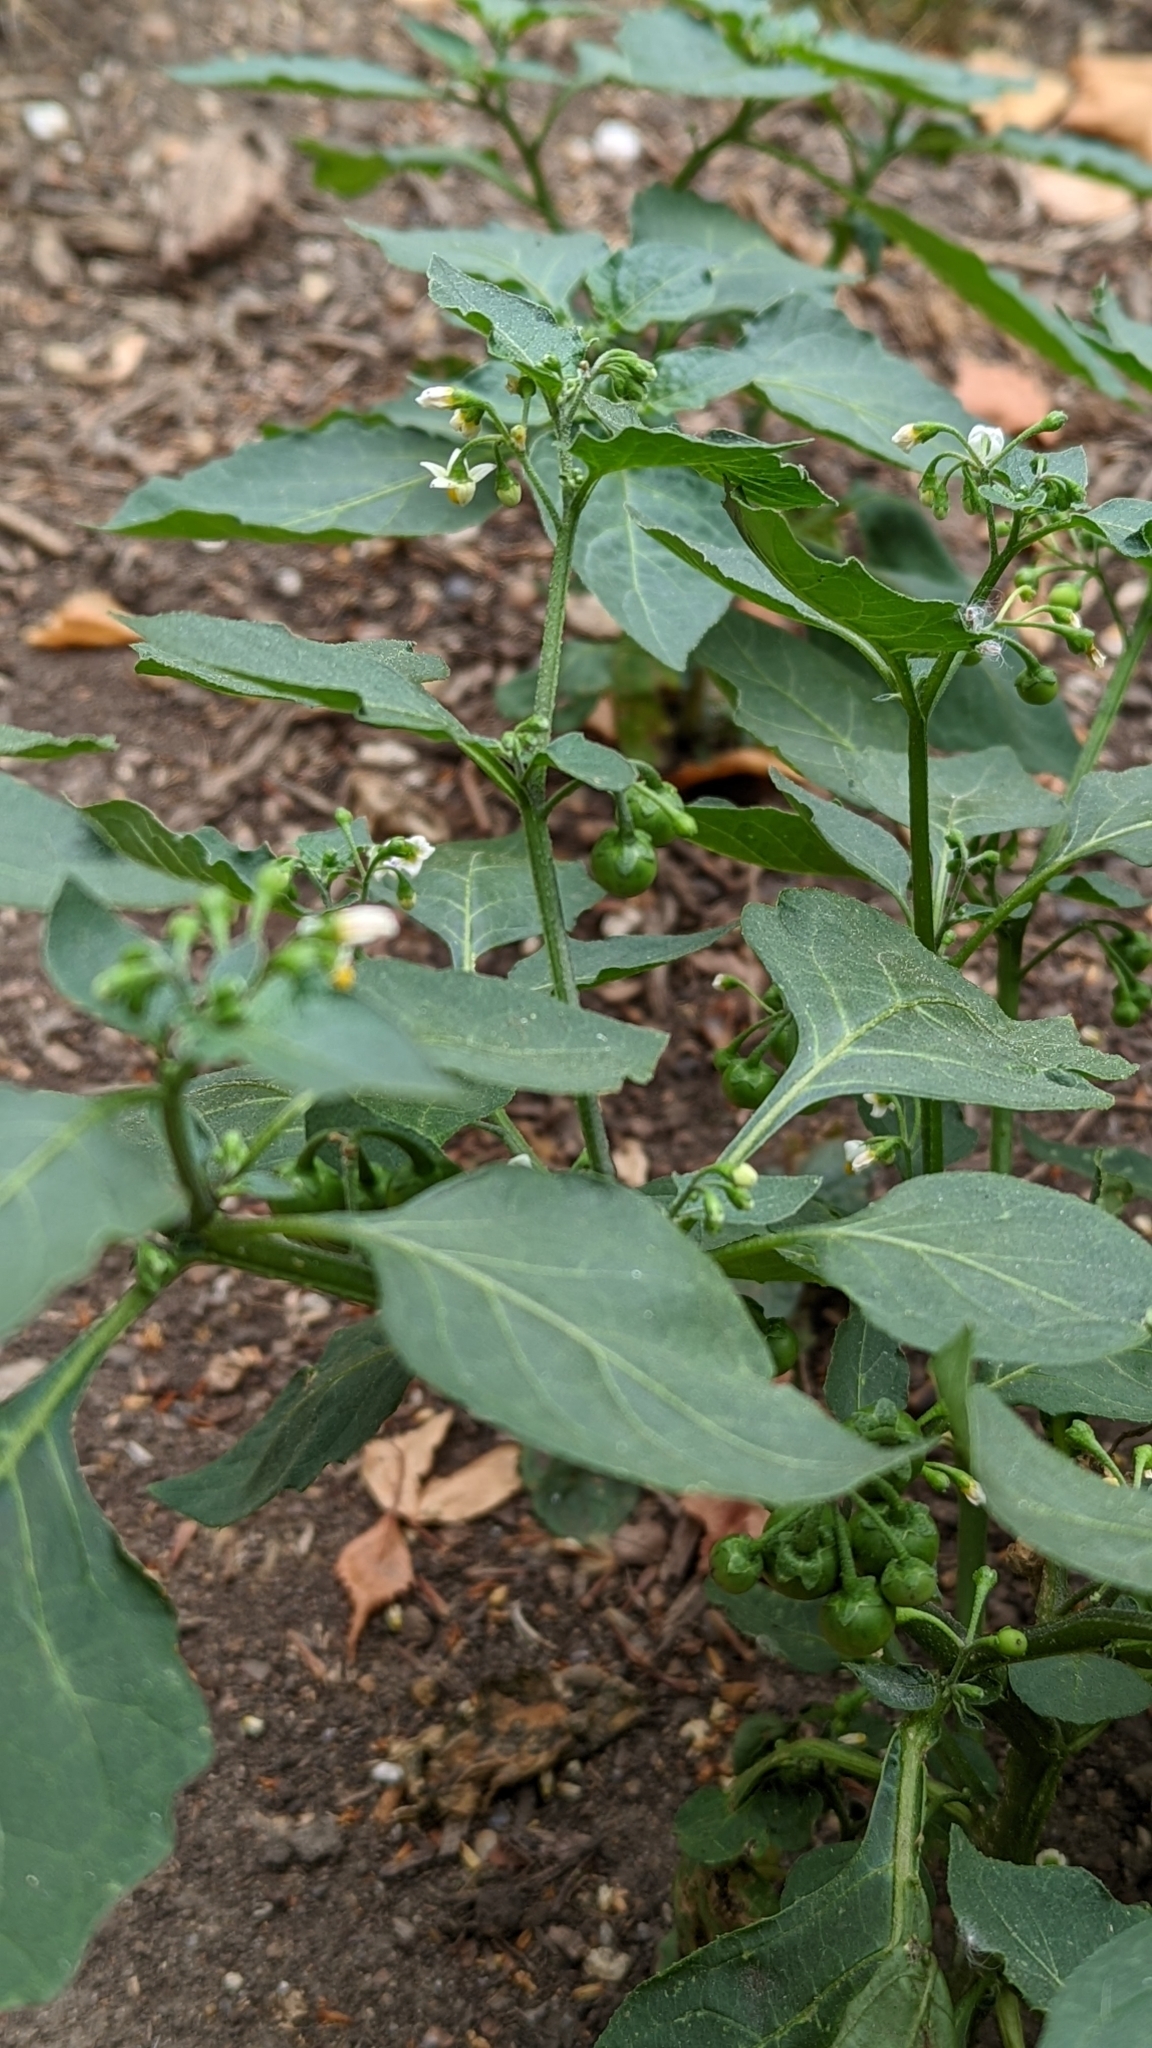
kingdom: Plantae
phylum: Tracheophyta
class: Magnoliopsida
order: Solanales
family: Solanaceae
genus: Solanum
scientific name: Solanum nigrum
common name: Black nightshade
